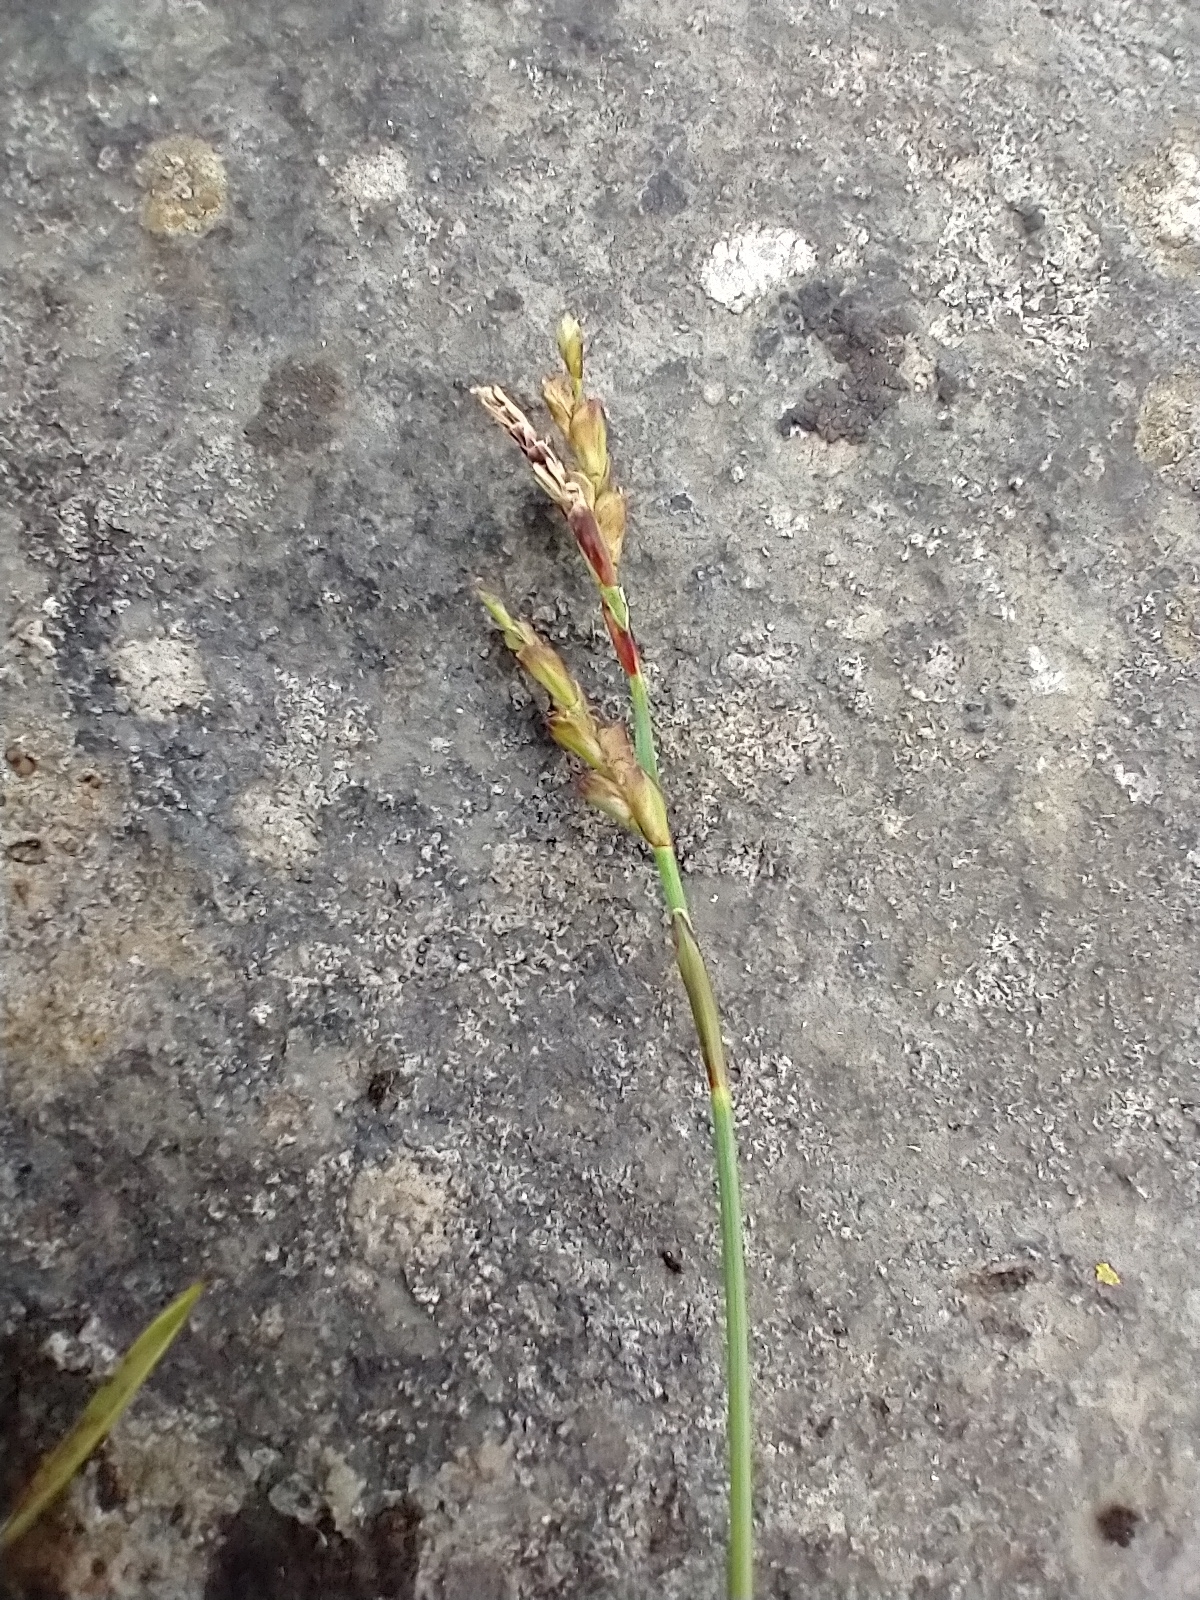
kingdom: Plantae
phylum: Tracheophyta
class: Liliopsida
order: Poales
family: Cyperaceae
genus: Carex
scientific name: Carex digitata
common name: Fingered sedge
